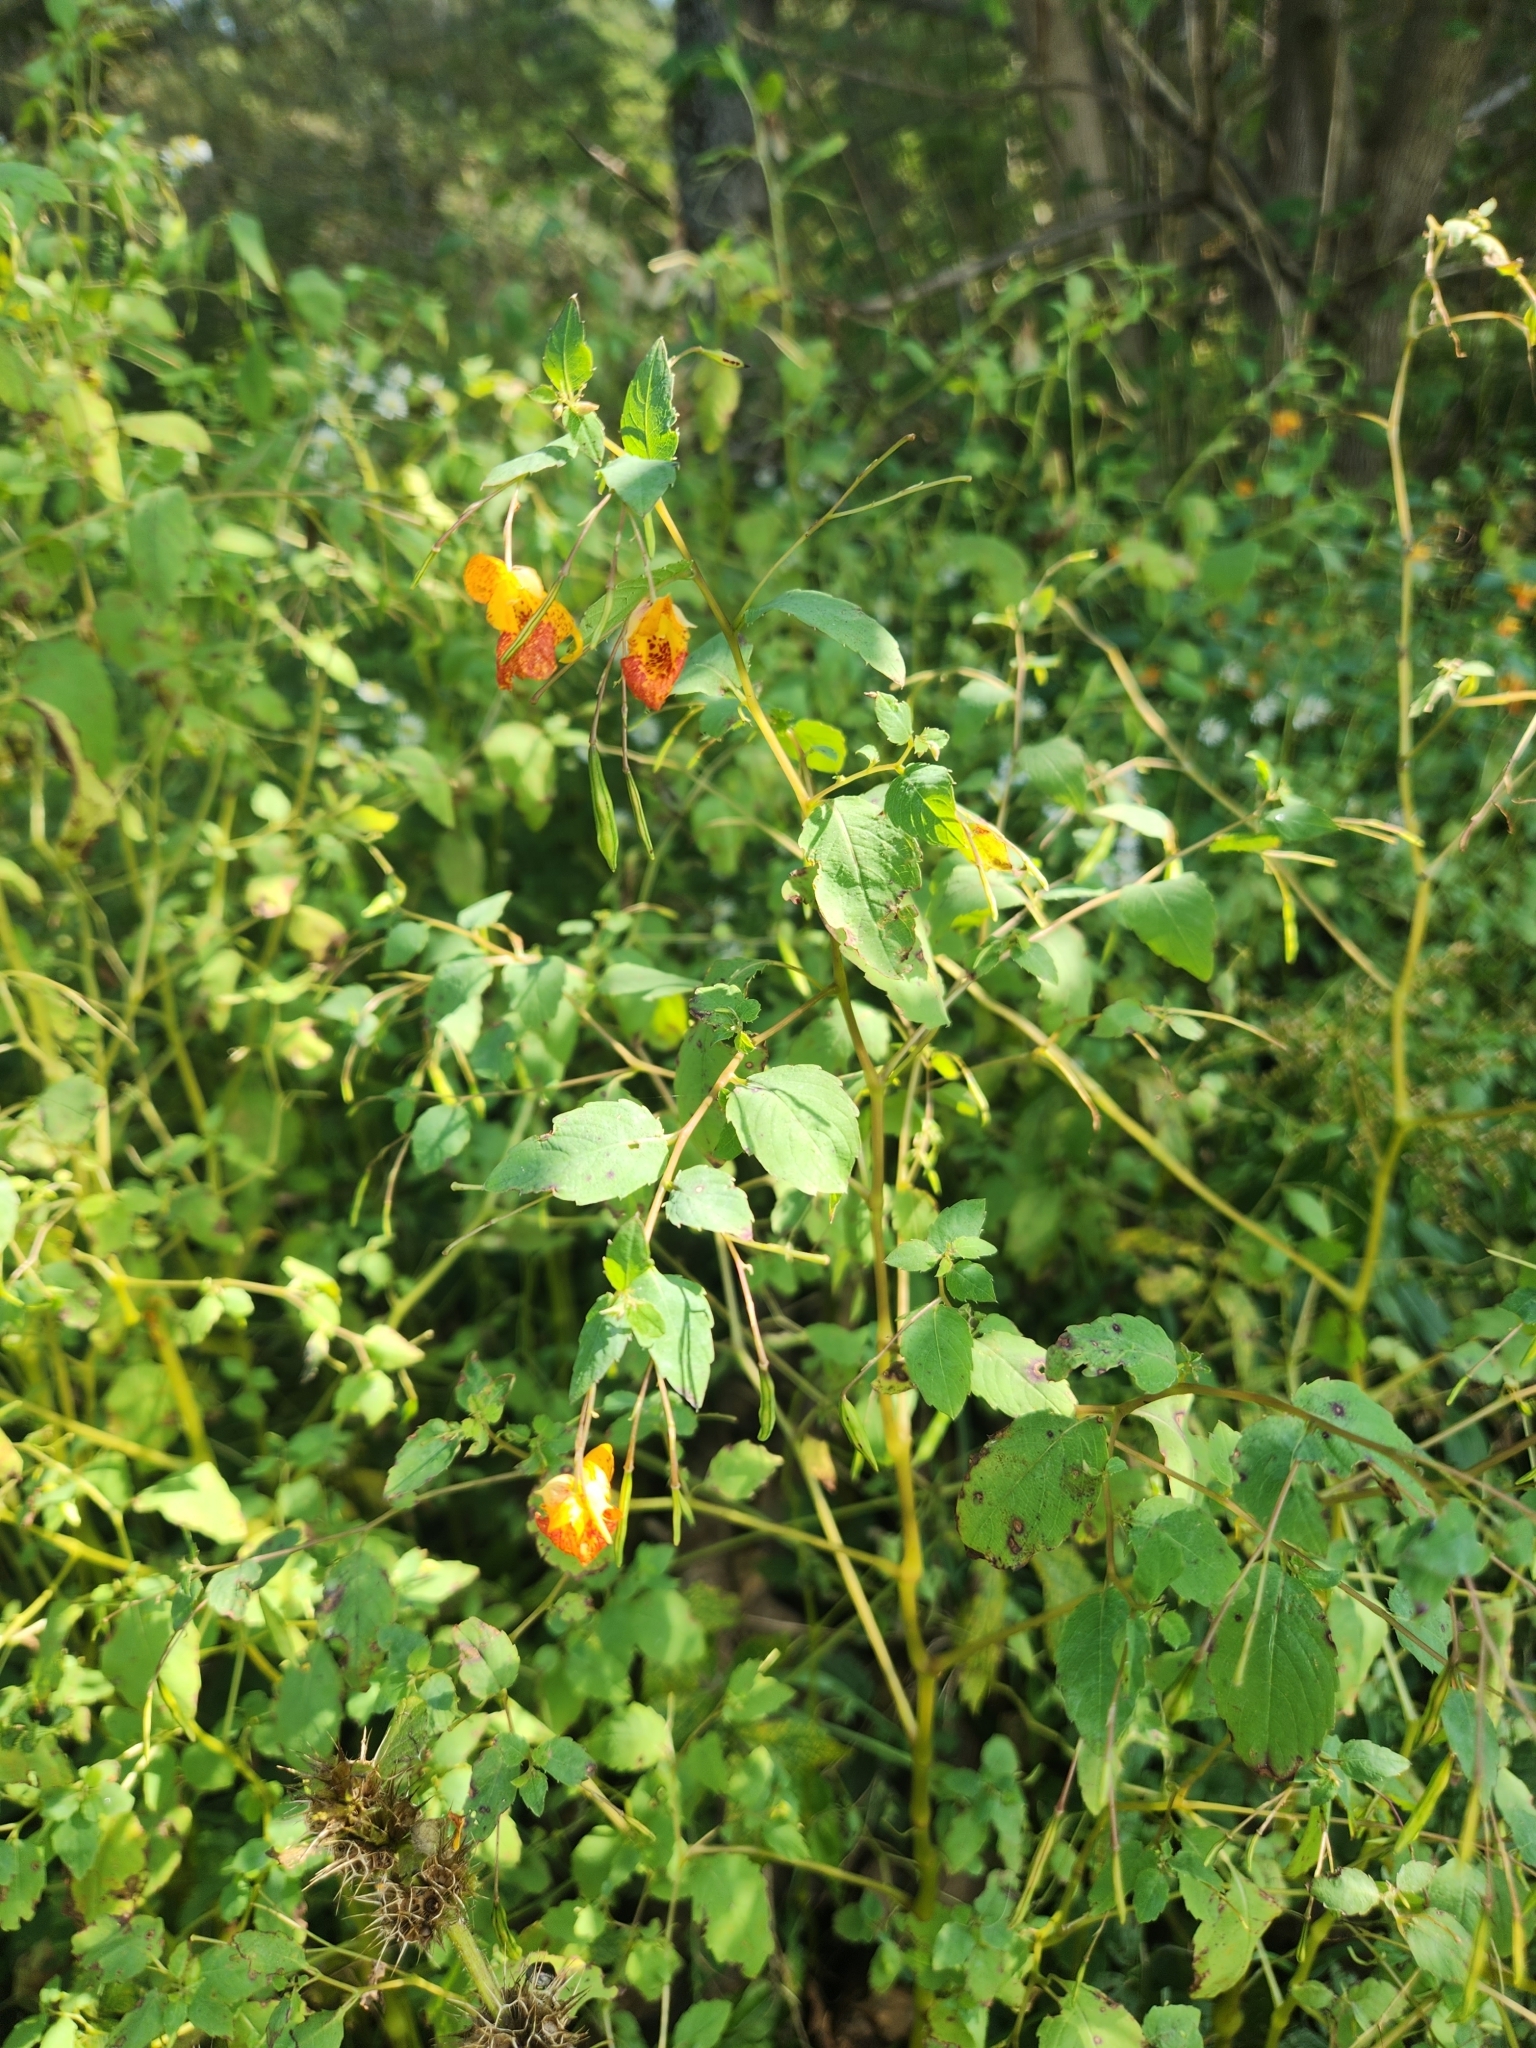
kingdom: Plantae
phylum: Tracheophyta
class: Magnoliopsida
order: Ericales
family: Balsaminaceae
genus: Impatiens
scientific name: Impatiens capensis
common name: Orange balsam
